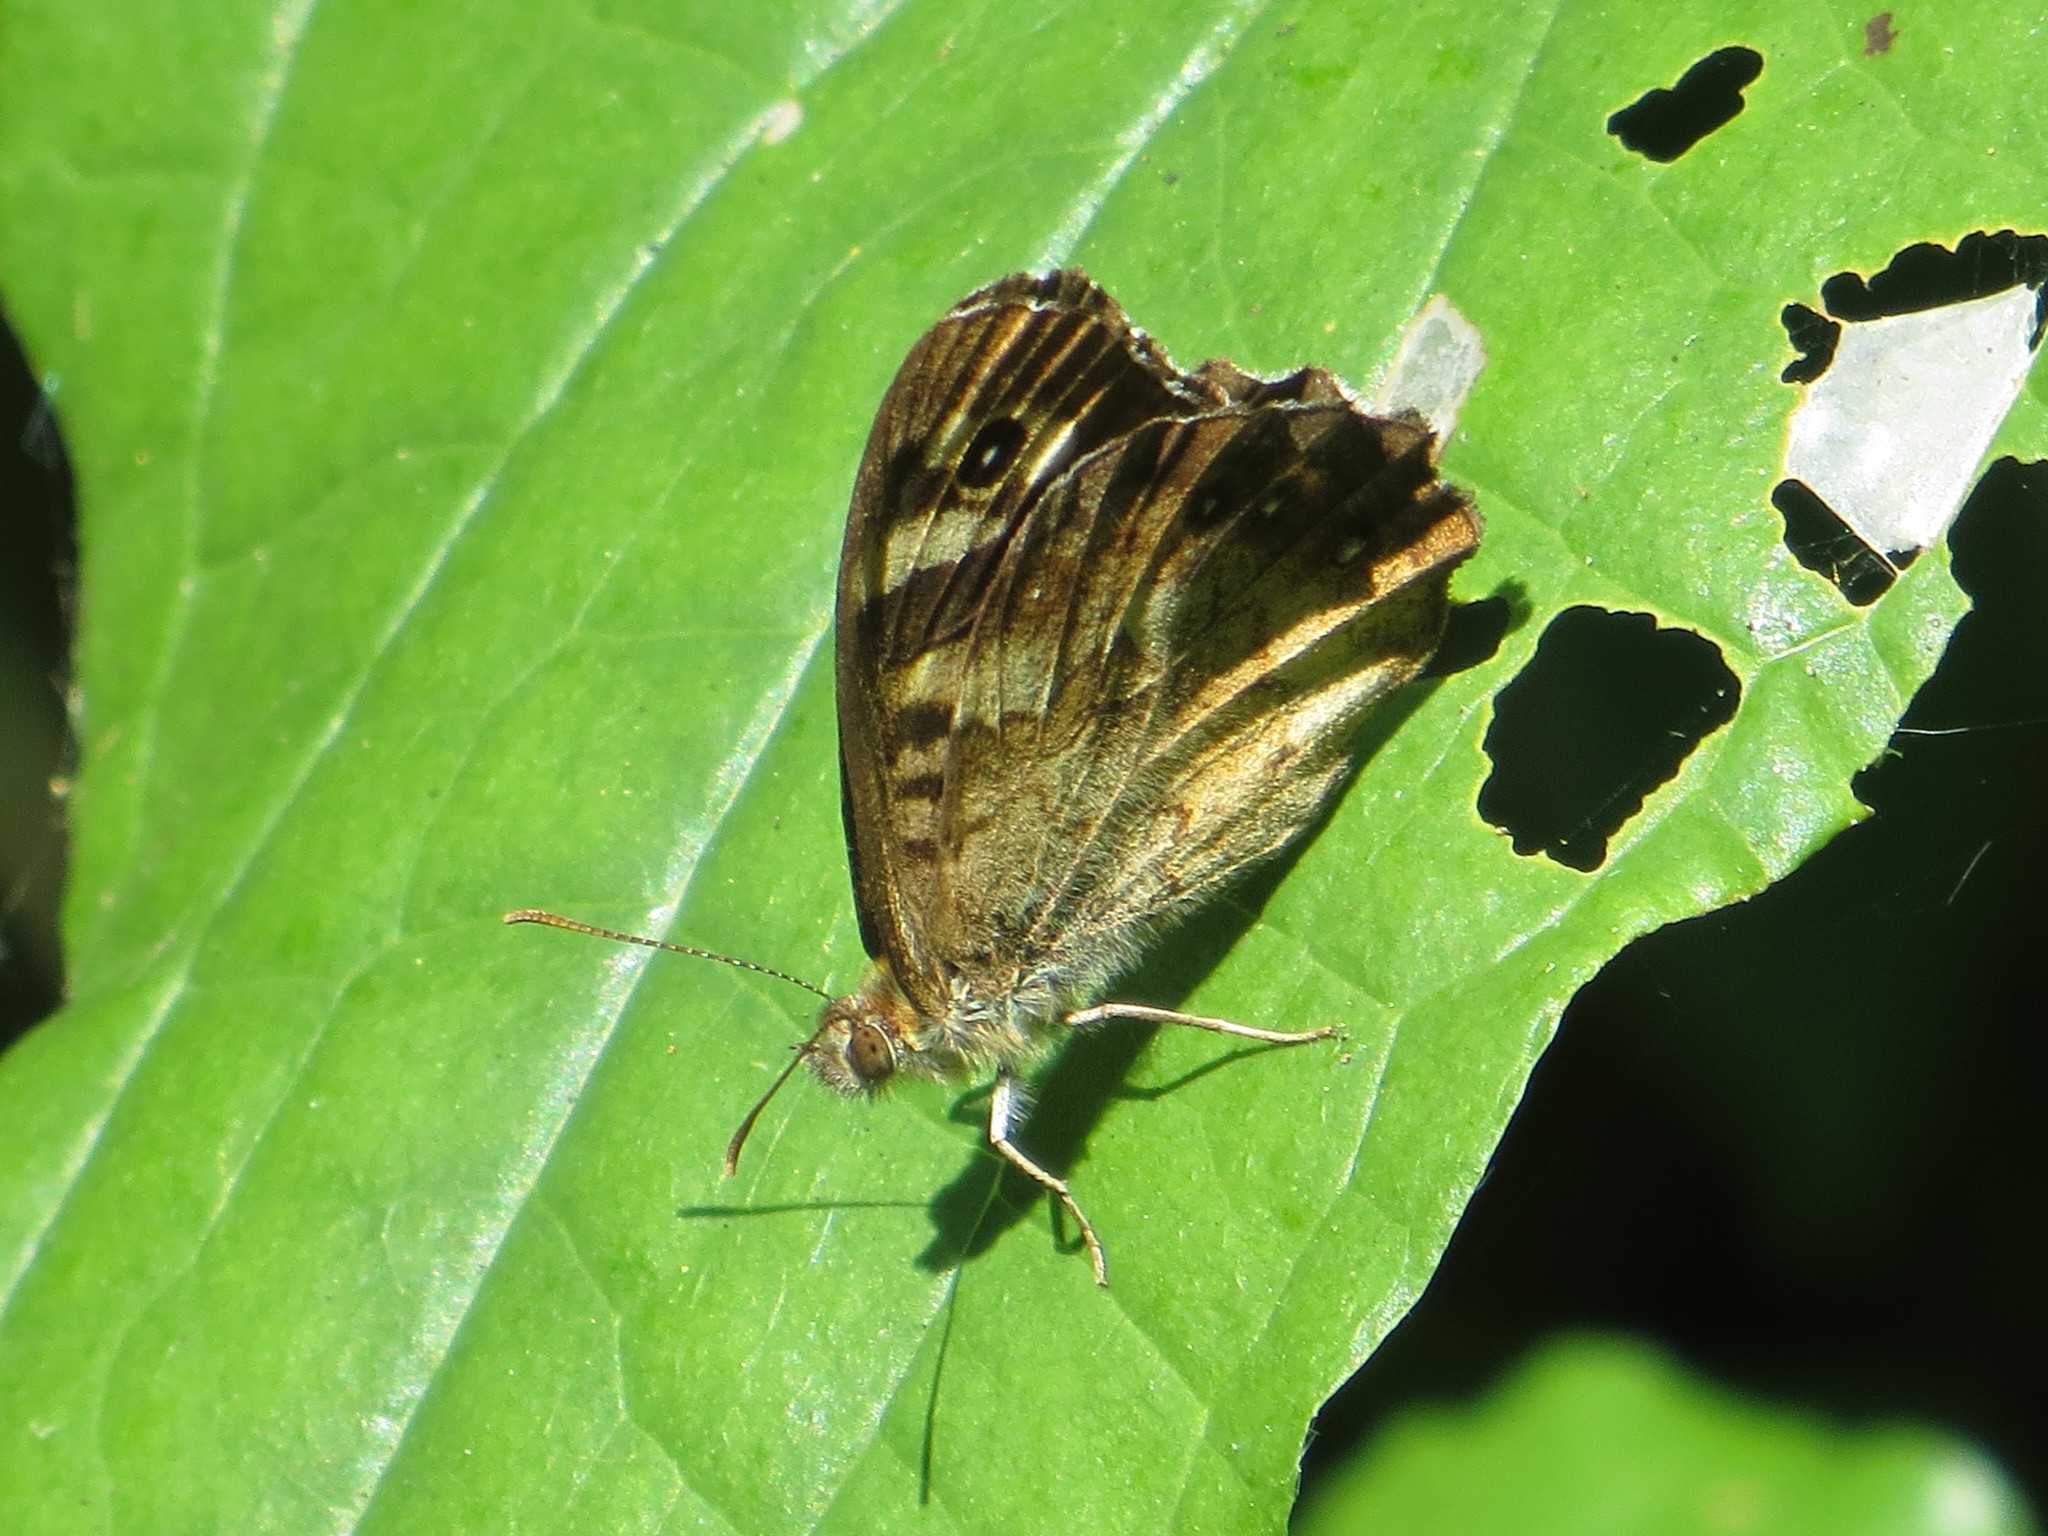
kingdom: Animalia
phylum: Arthropoda
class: Insecta
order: Lepidoptera
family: Nymphalidae
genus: Pararge
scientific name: Pararge aegeria
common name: Speckled wood
